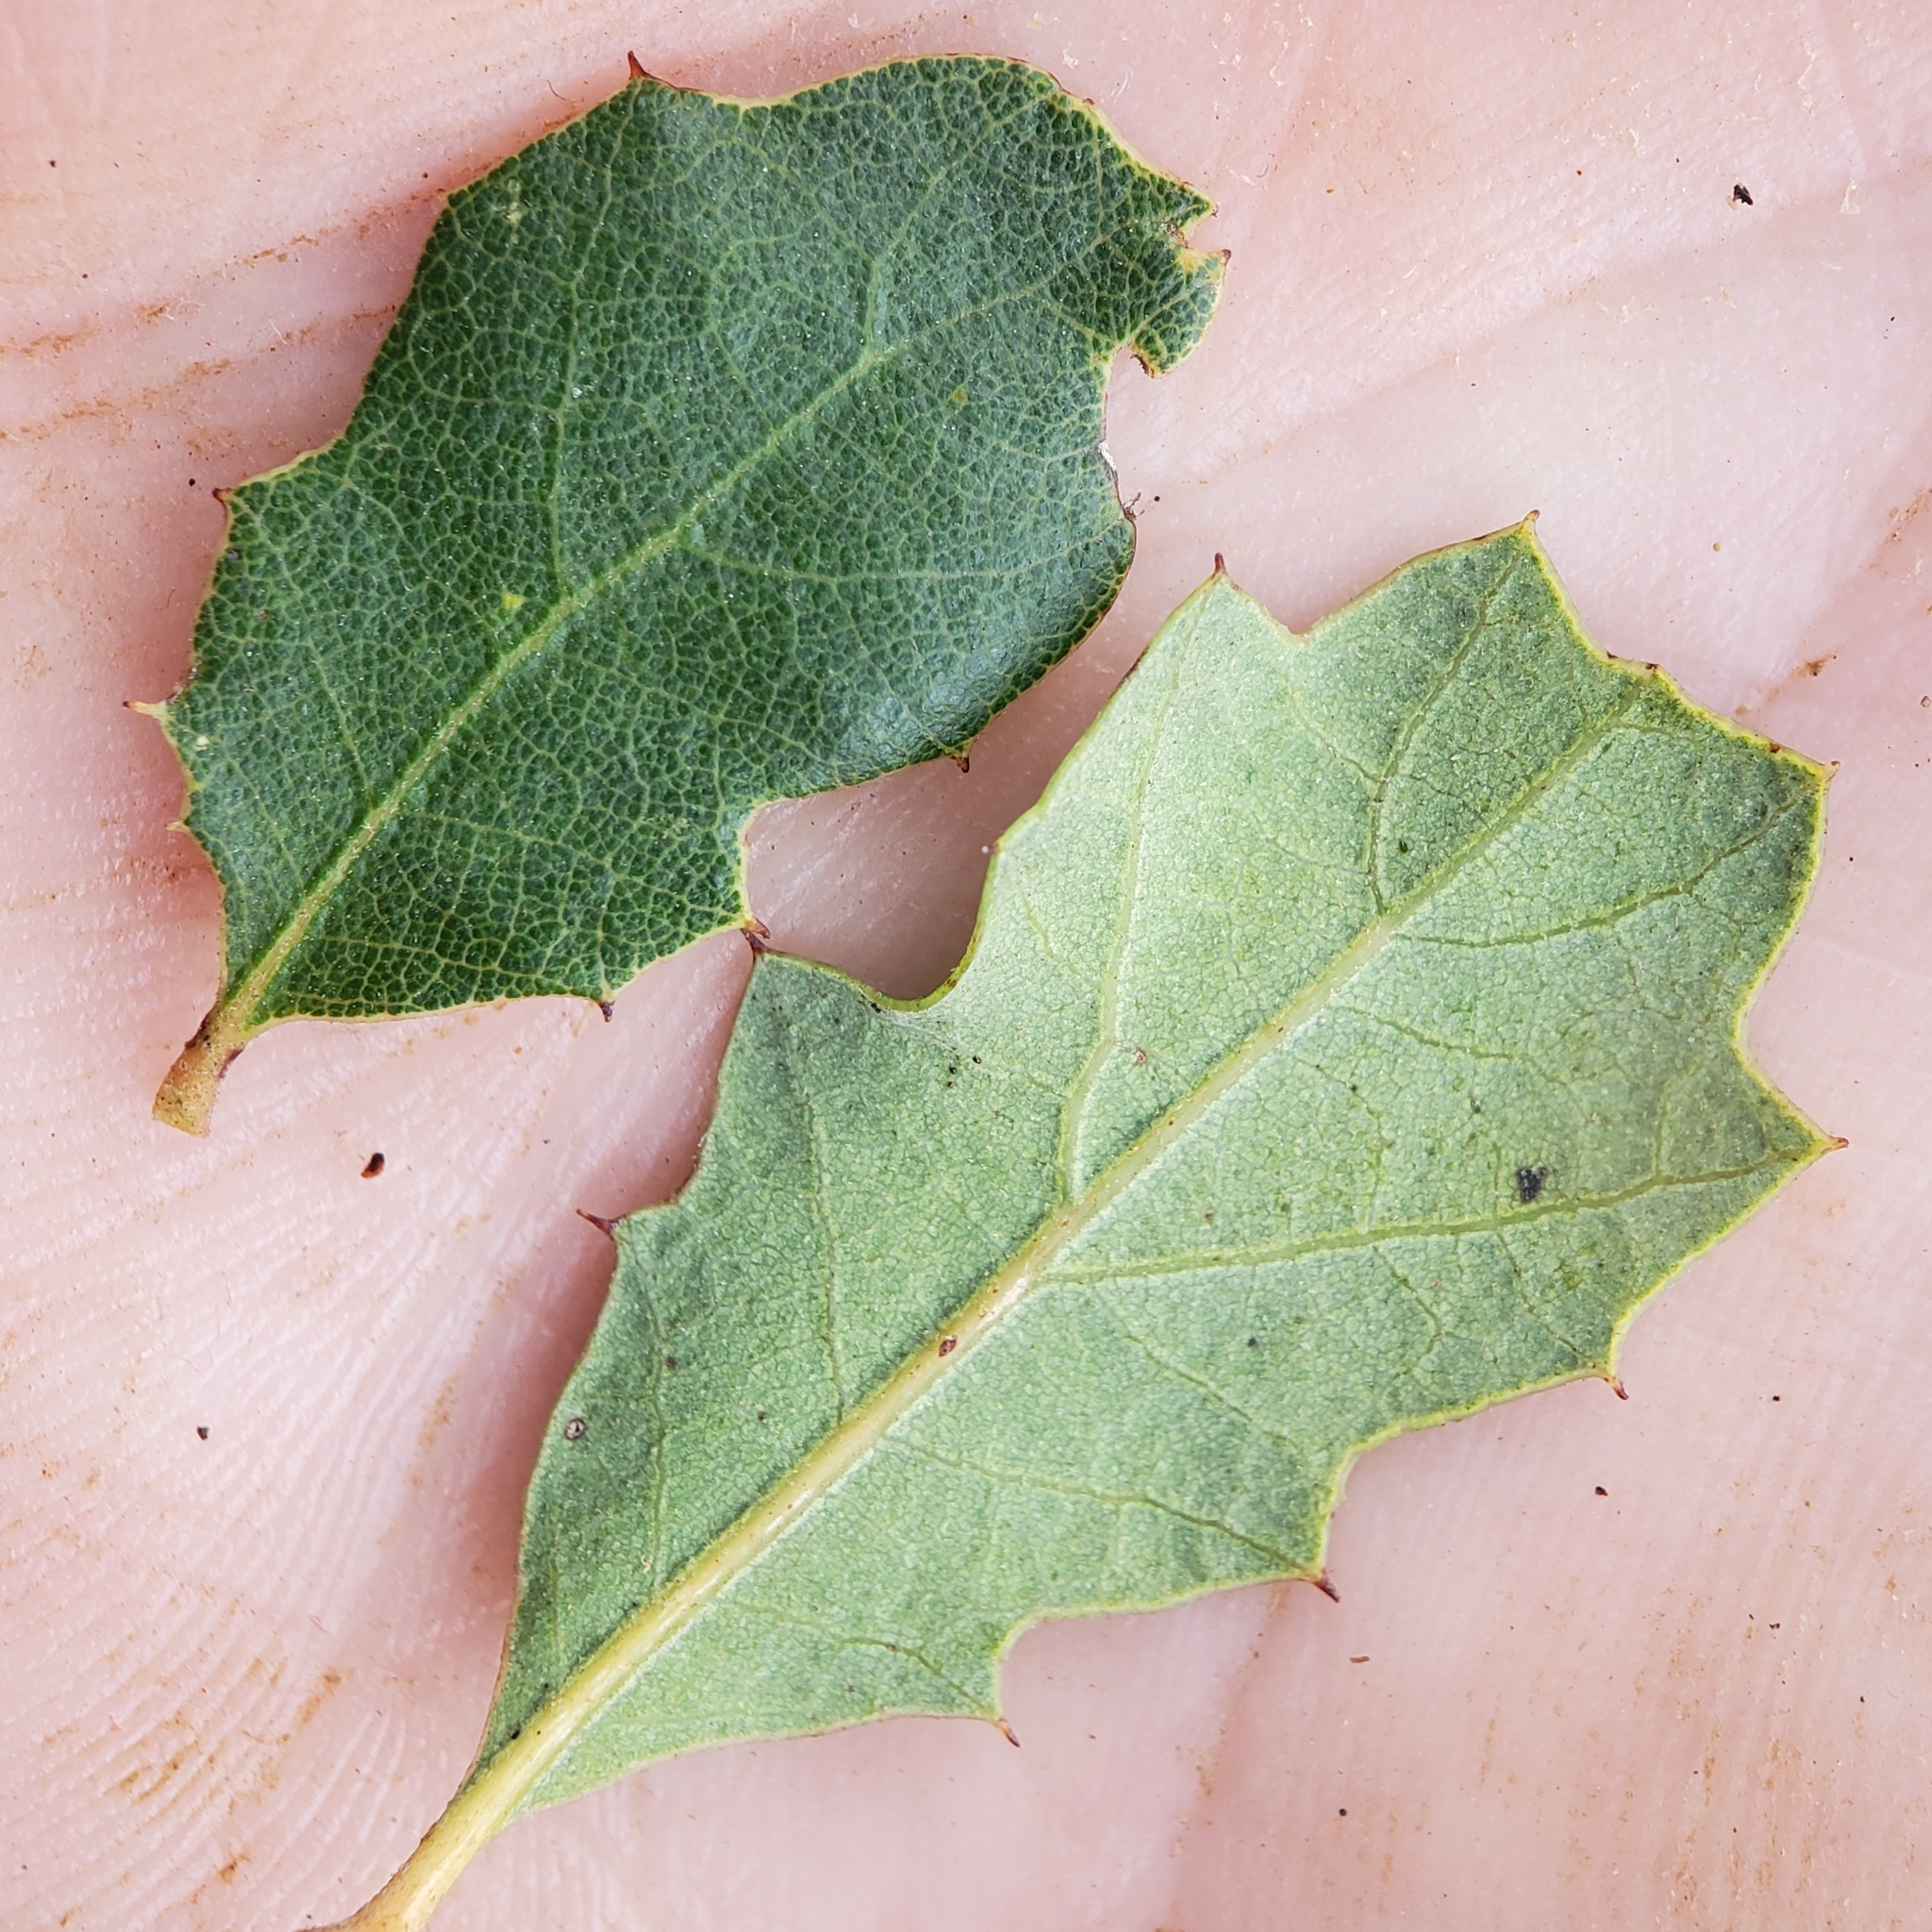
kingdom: Plantae
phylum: Tracheophyta
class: Magnoliopsida
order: Fagales
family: Fagaceae
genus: Quercus
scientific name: Quercus berberidifolia
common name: California scrub oak
